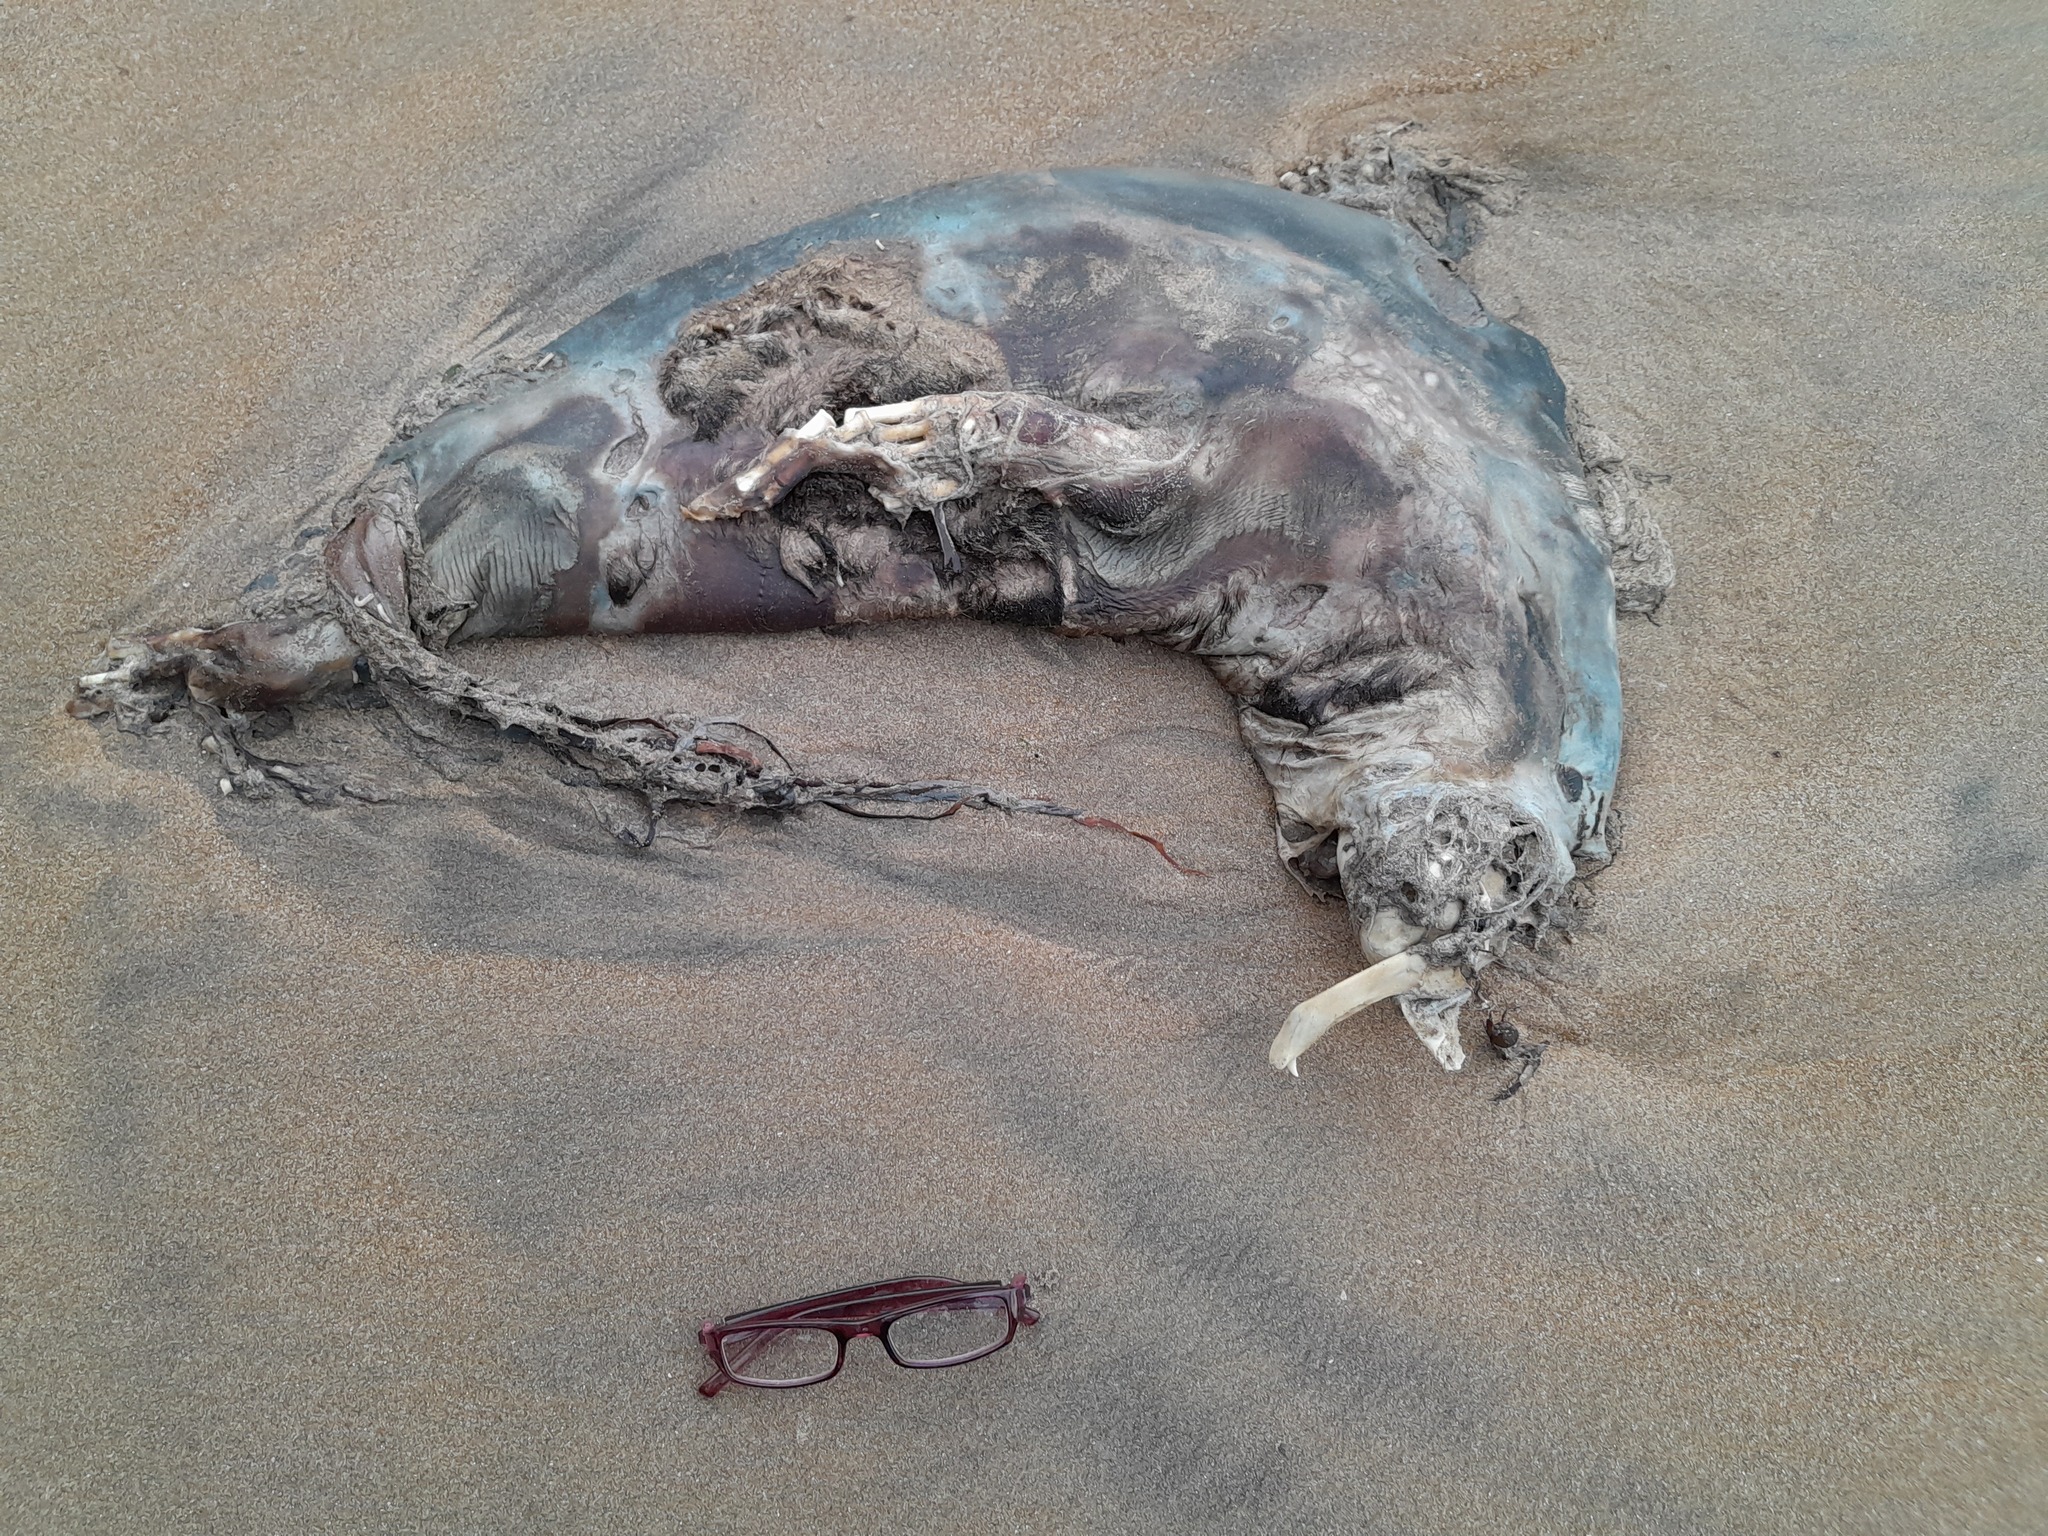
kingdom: Animalia
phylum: Chordata
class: Mammalia
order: Carnivora
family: Otariidae
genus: Arctocephalus
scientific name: Arctocephalus forsteri
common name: New zealand fur seal
